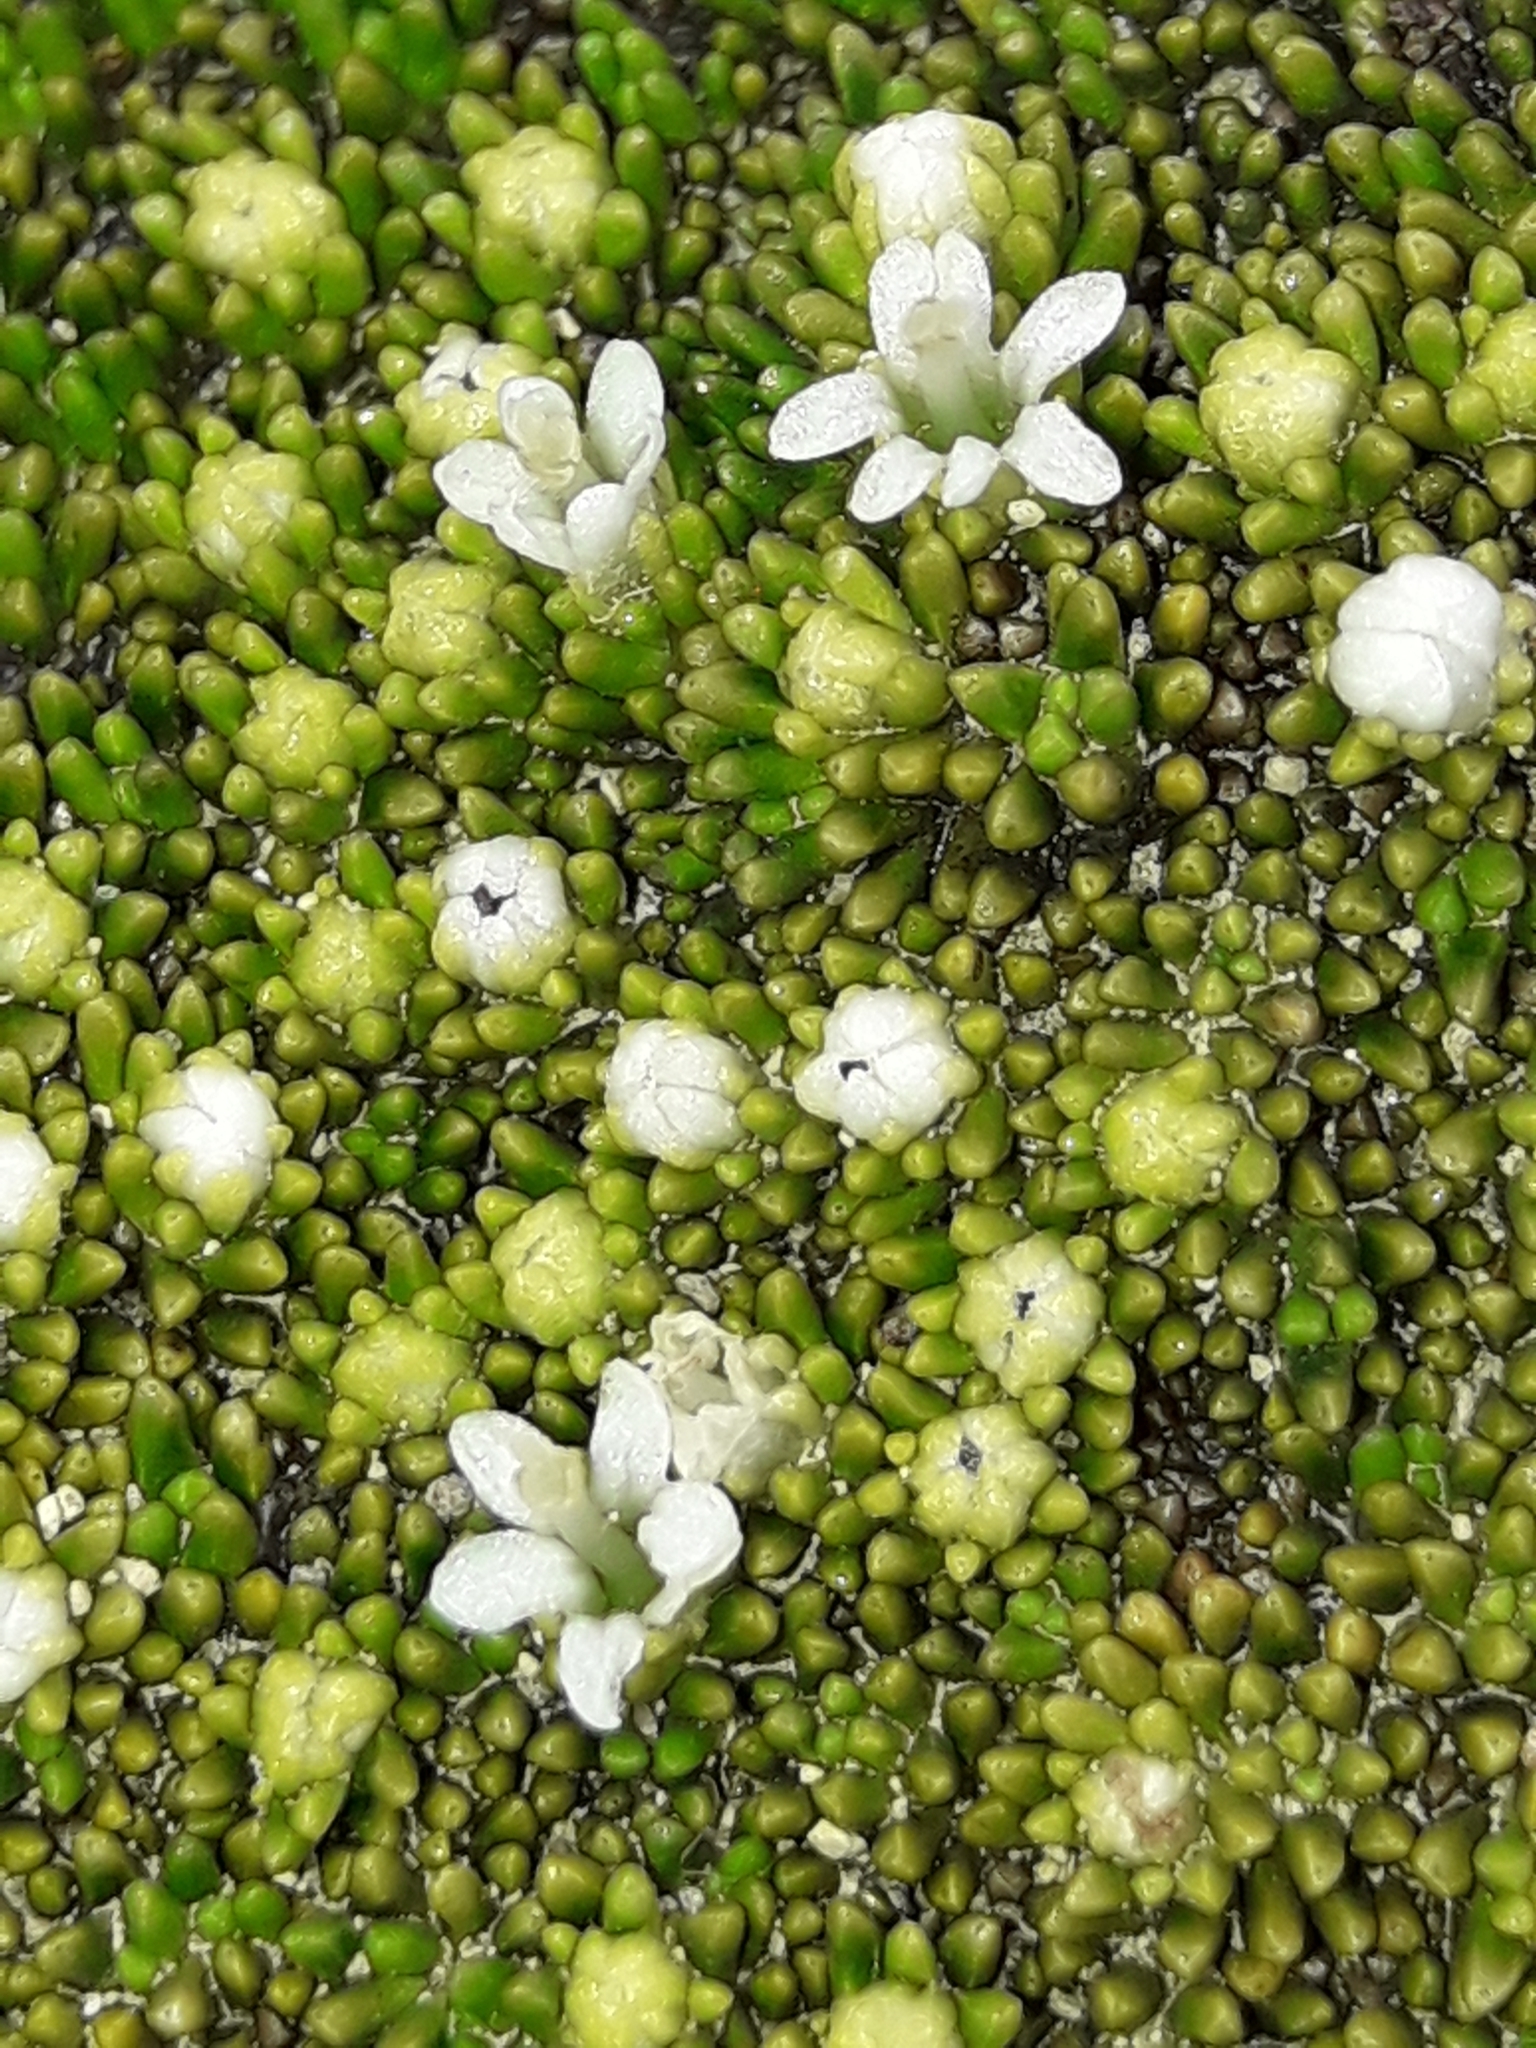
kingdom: Plantae
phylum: Tracheophyta
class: Magnoliopsida
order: Asterales
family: Stylidiaceae
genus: Phyllachne
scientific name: Phyllachne colensoi
